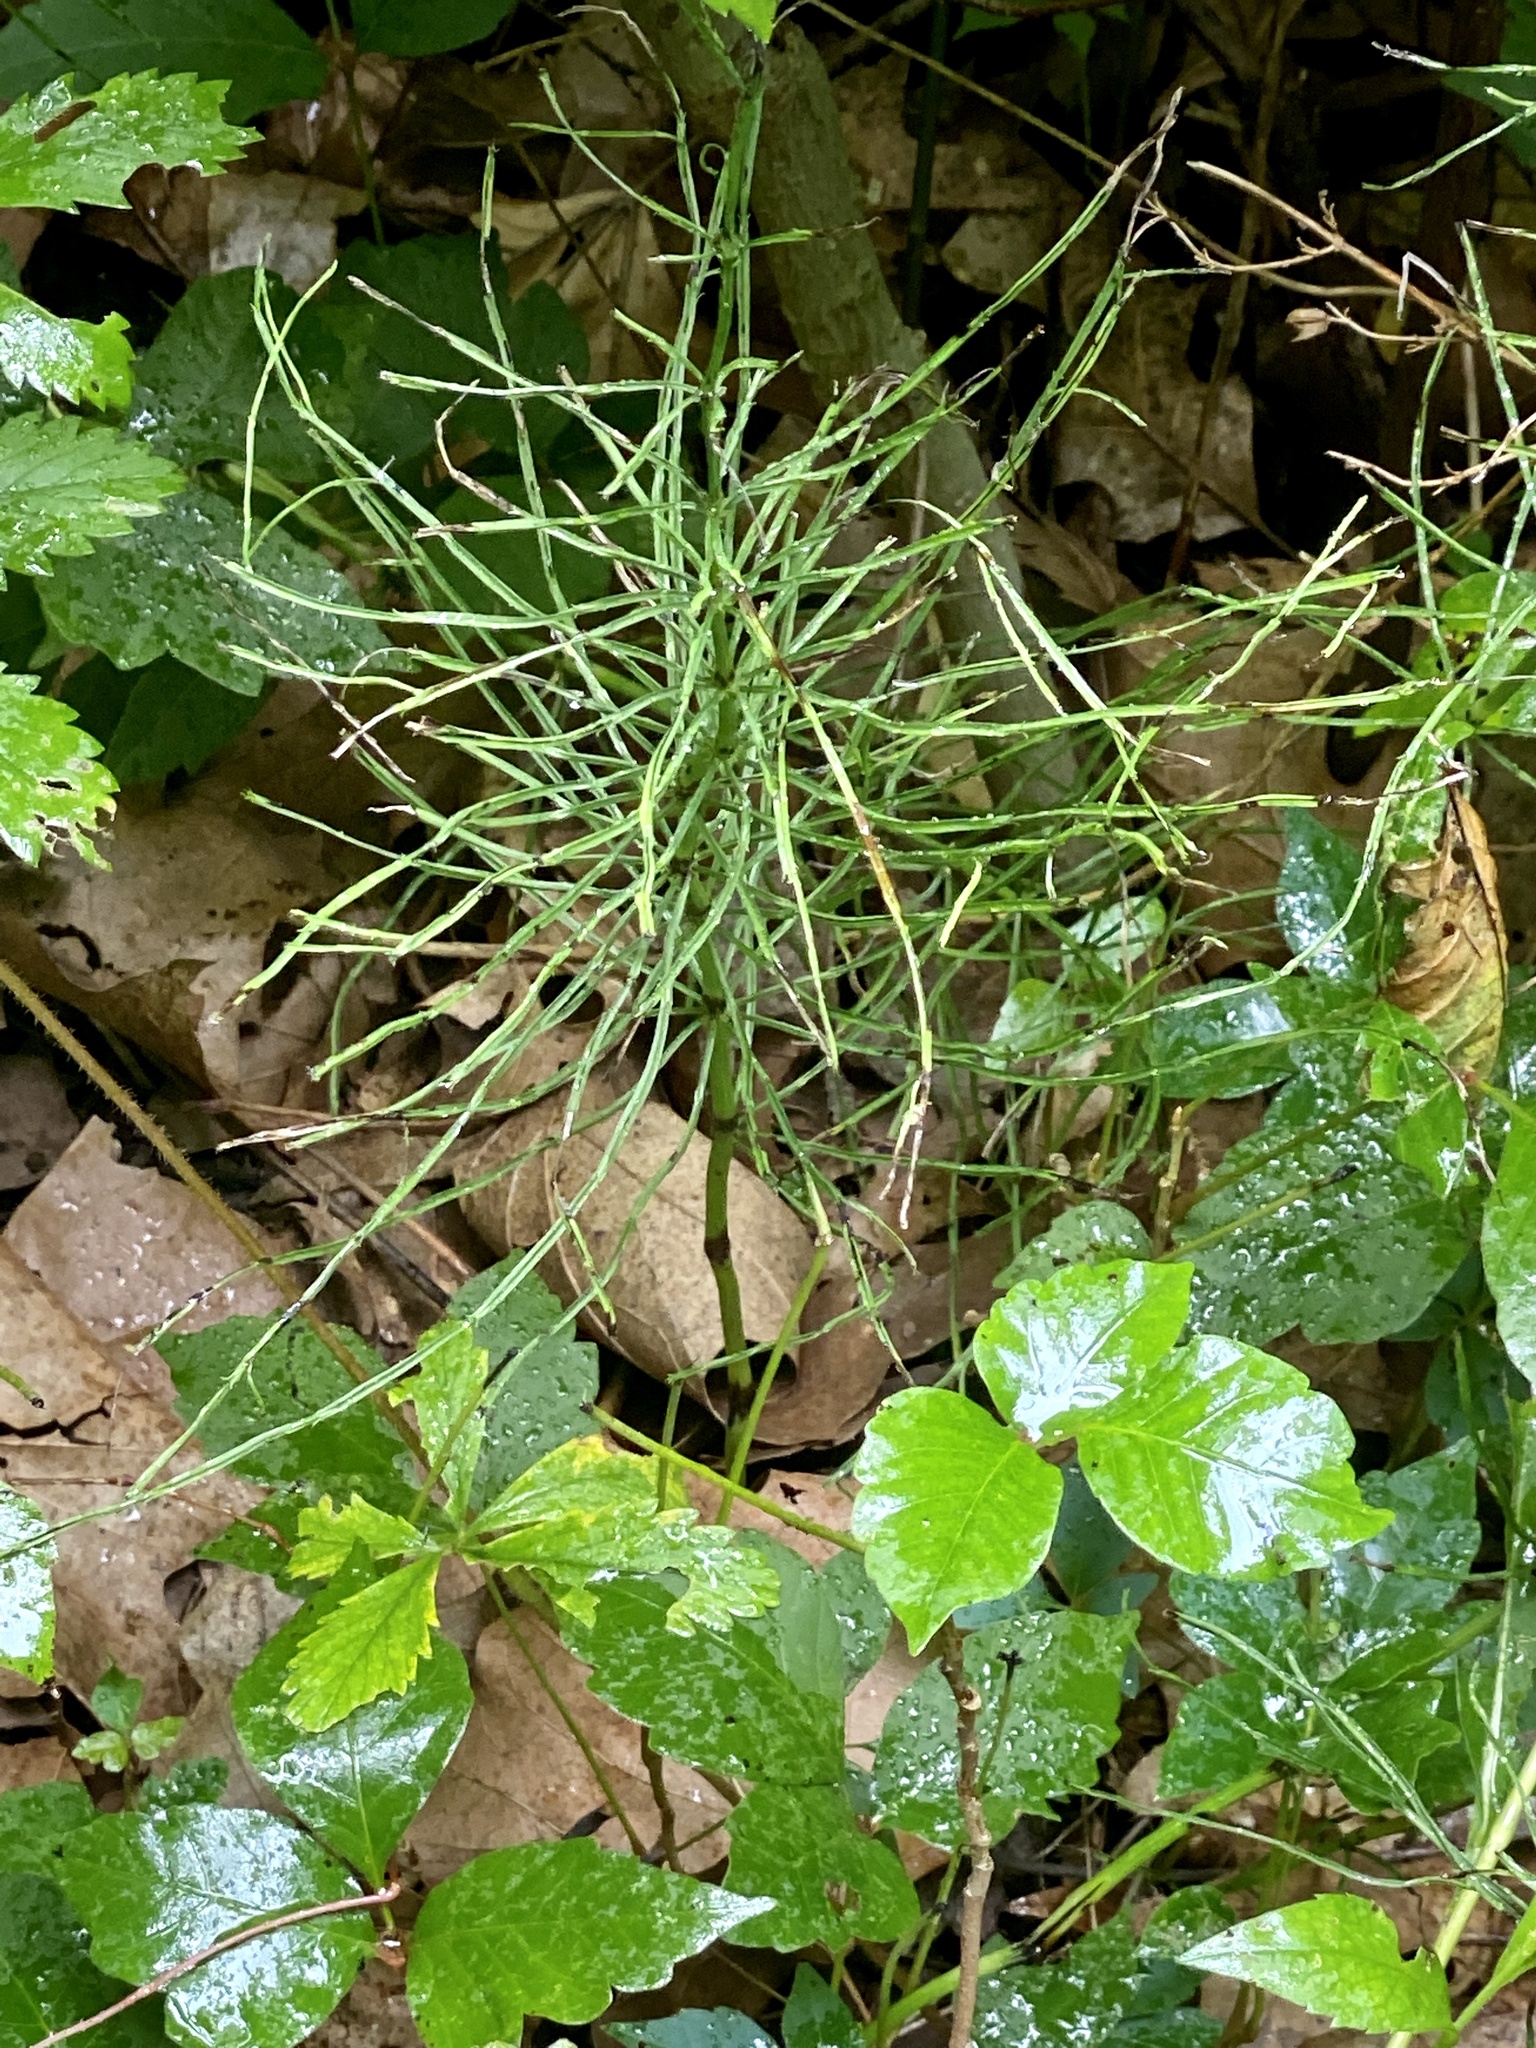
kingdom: Plantae
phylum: Tracheophyta
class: Polypodiopsida
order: Equisetales
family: Equisetaceae
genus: Equisetum
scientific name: Equisetum arvense
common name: Field horsetail
